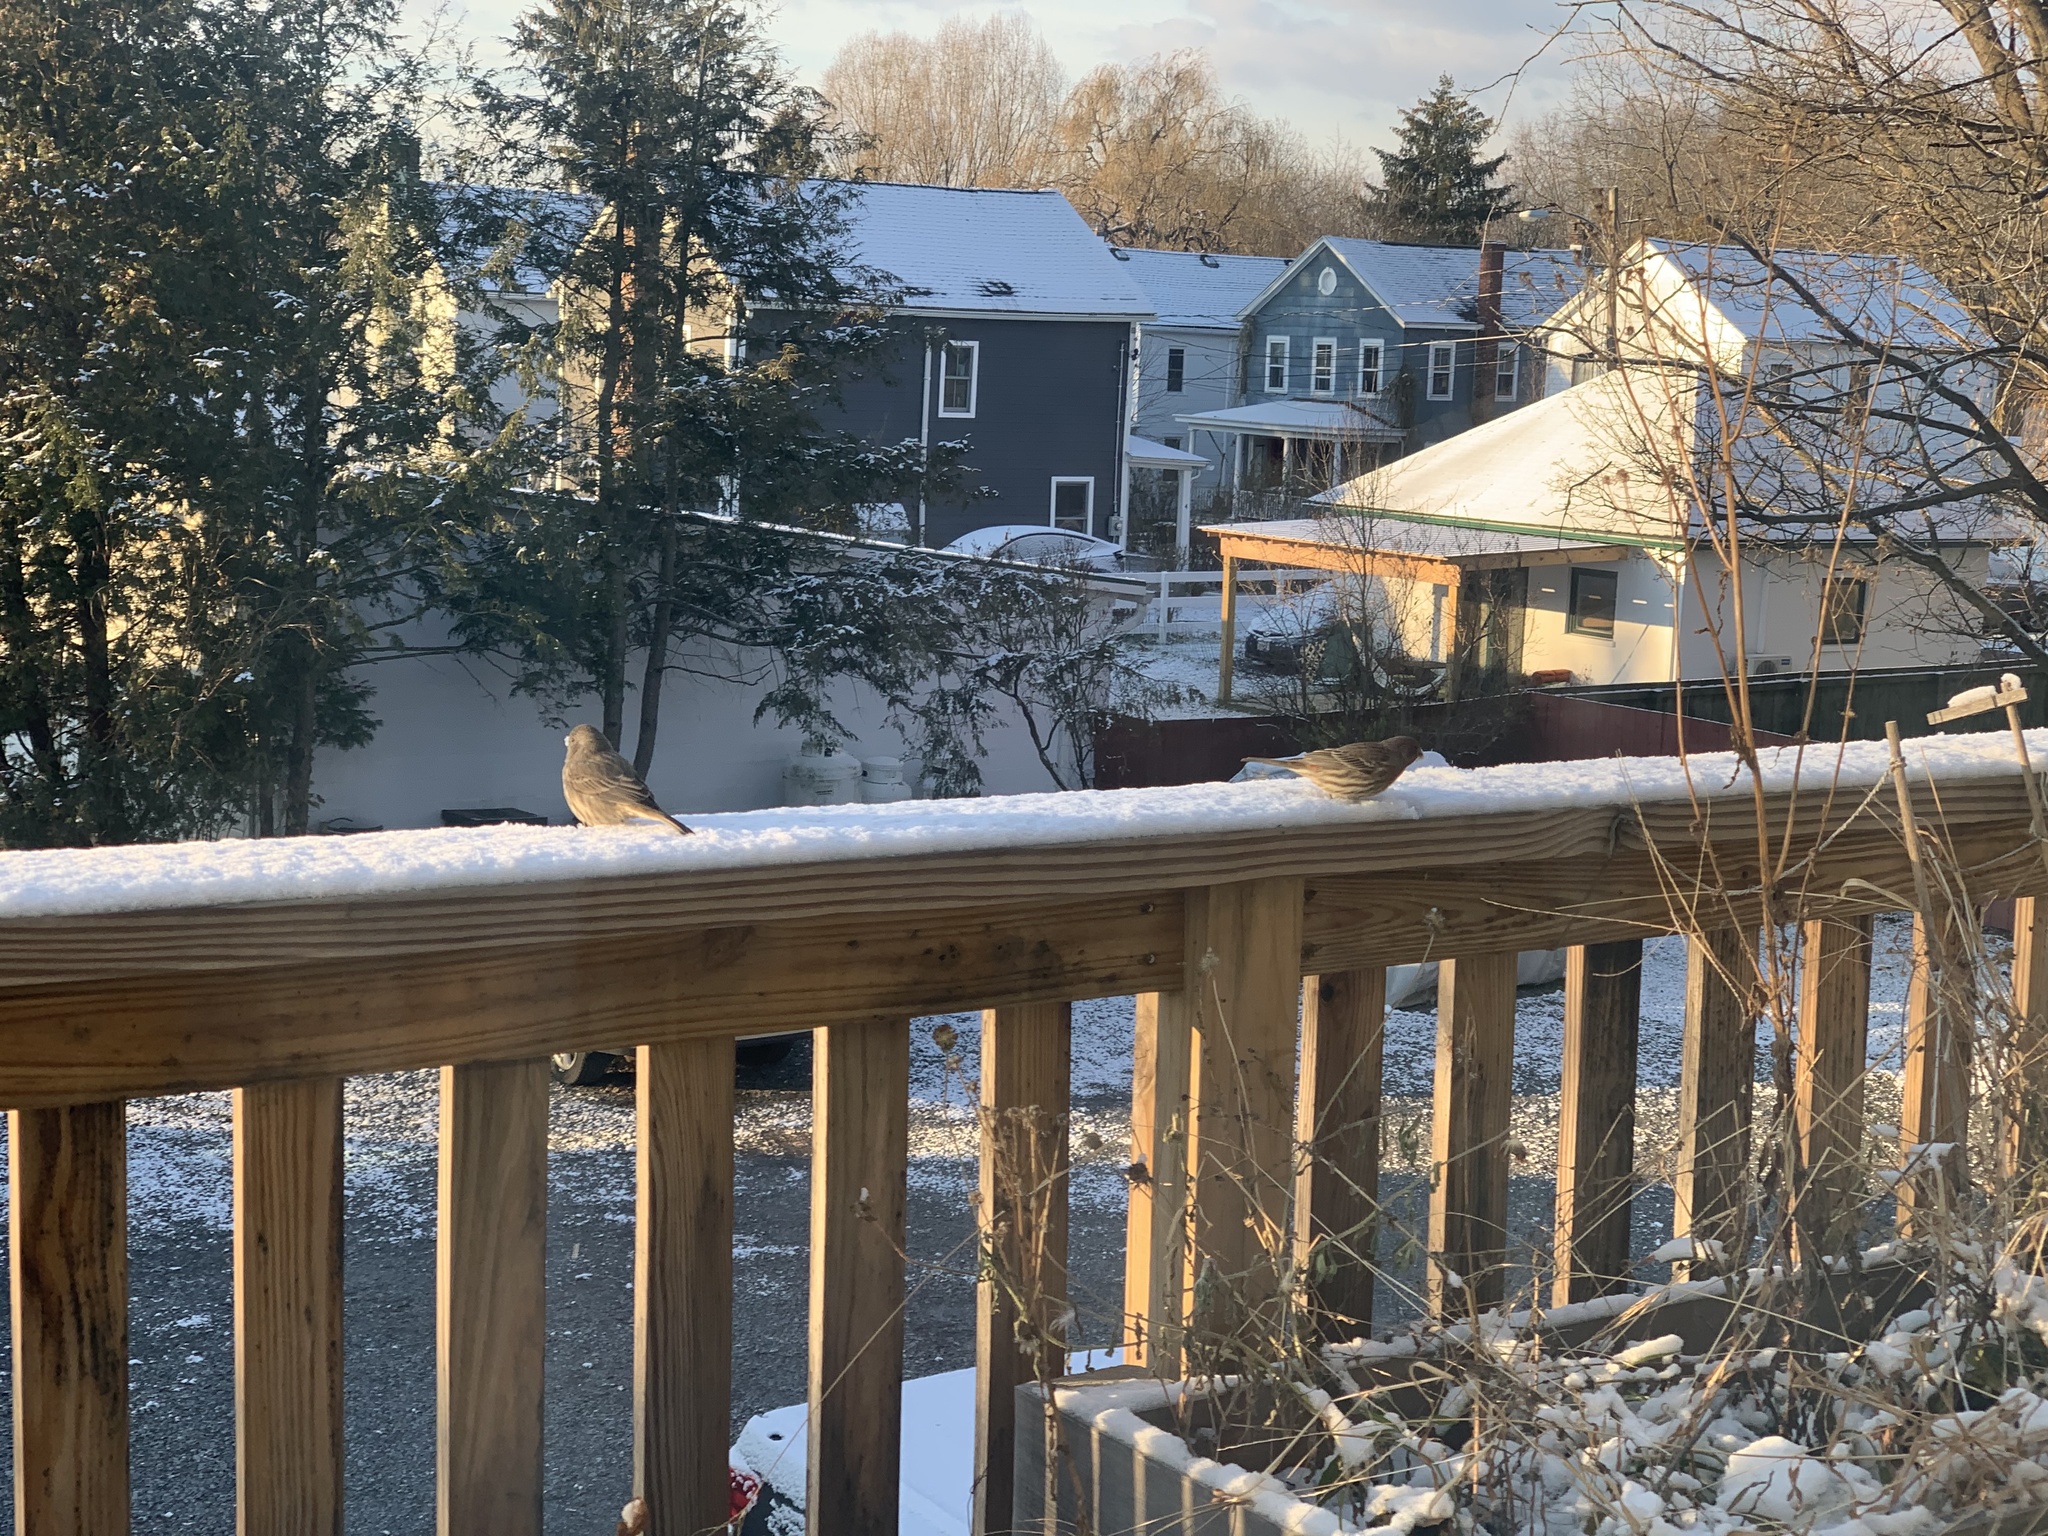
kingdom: Animalia
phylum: Chordata
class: Aves
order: Passeriformes
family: Fringillidae
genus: Haemorhous
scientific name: Haemorhous mexicanus
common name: House finch
